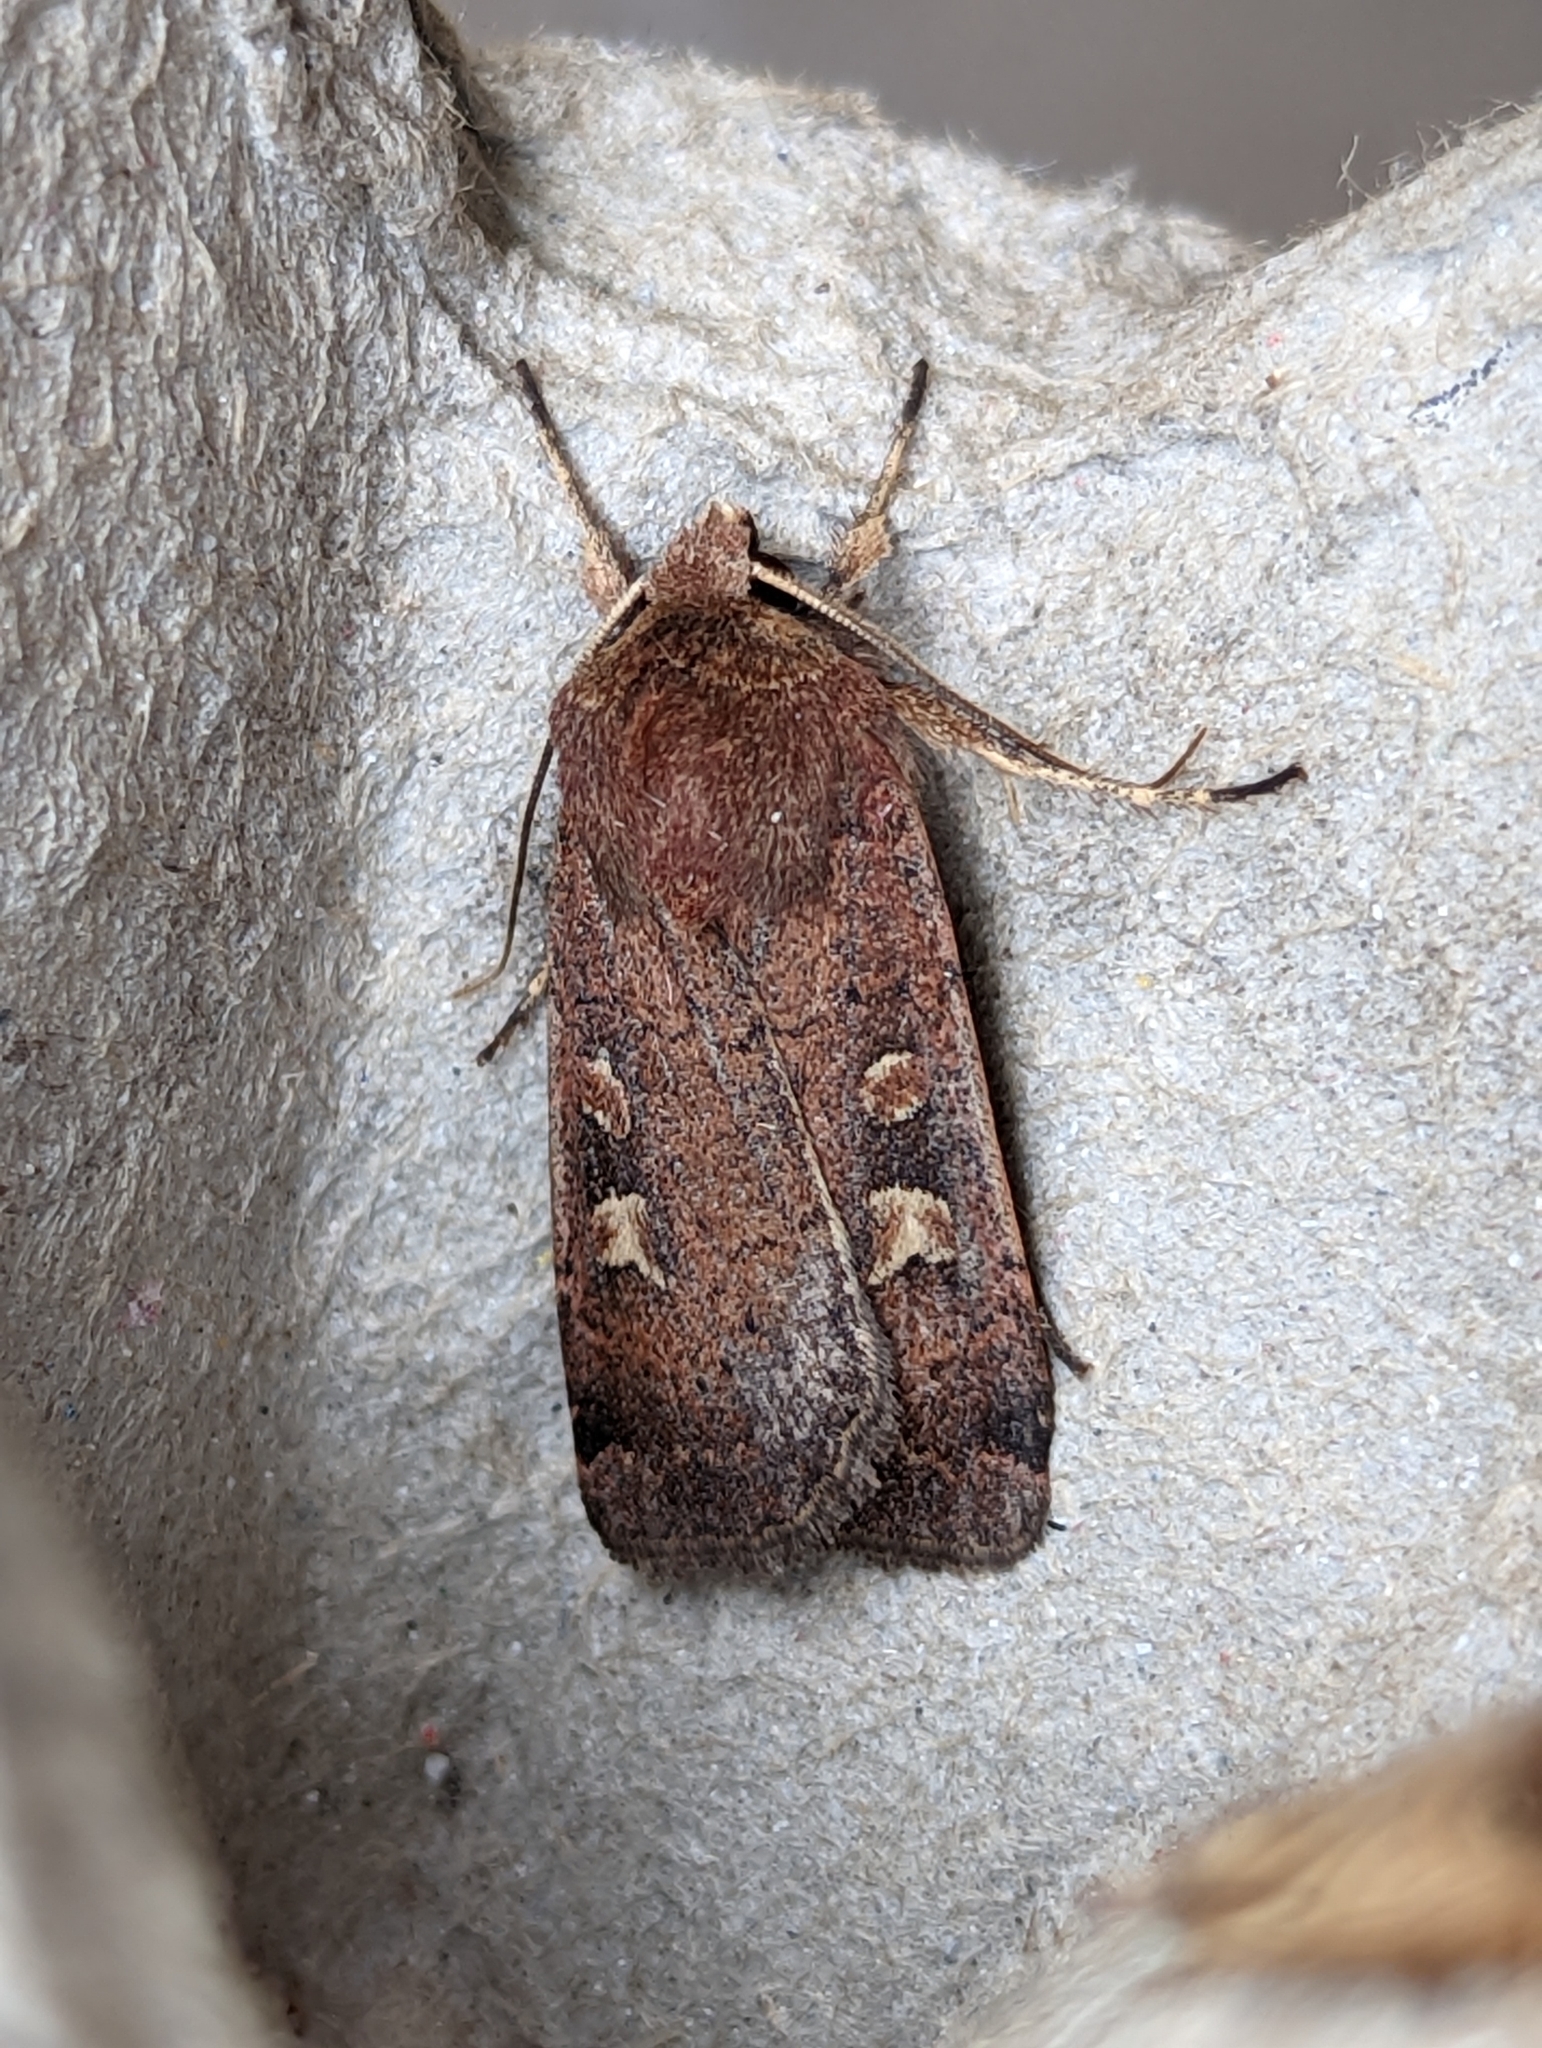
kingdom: Animalia
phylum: Arthropoda
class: Insecta
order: Lepidoptera
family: Noctuidae
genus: Diarsia
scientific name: Diarsia rubi
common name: Small square-spot
